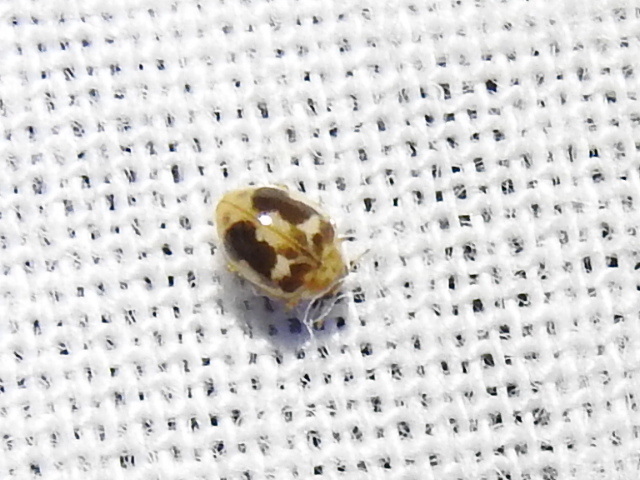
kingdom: Animalia
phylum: Arthropoda
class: Insecta
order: Coleoptera
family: Coccinellidae
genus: Psyllobora
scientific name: Psyllobora renifer
